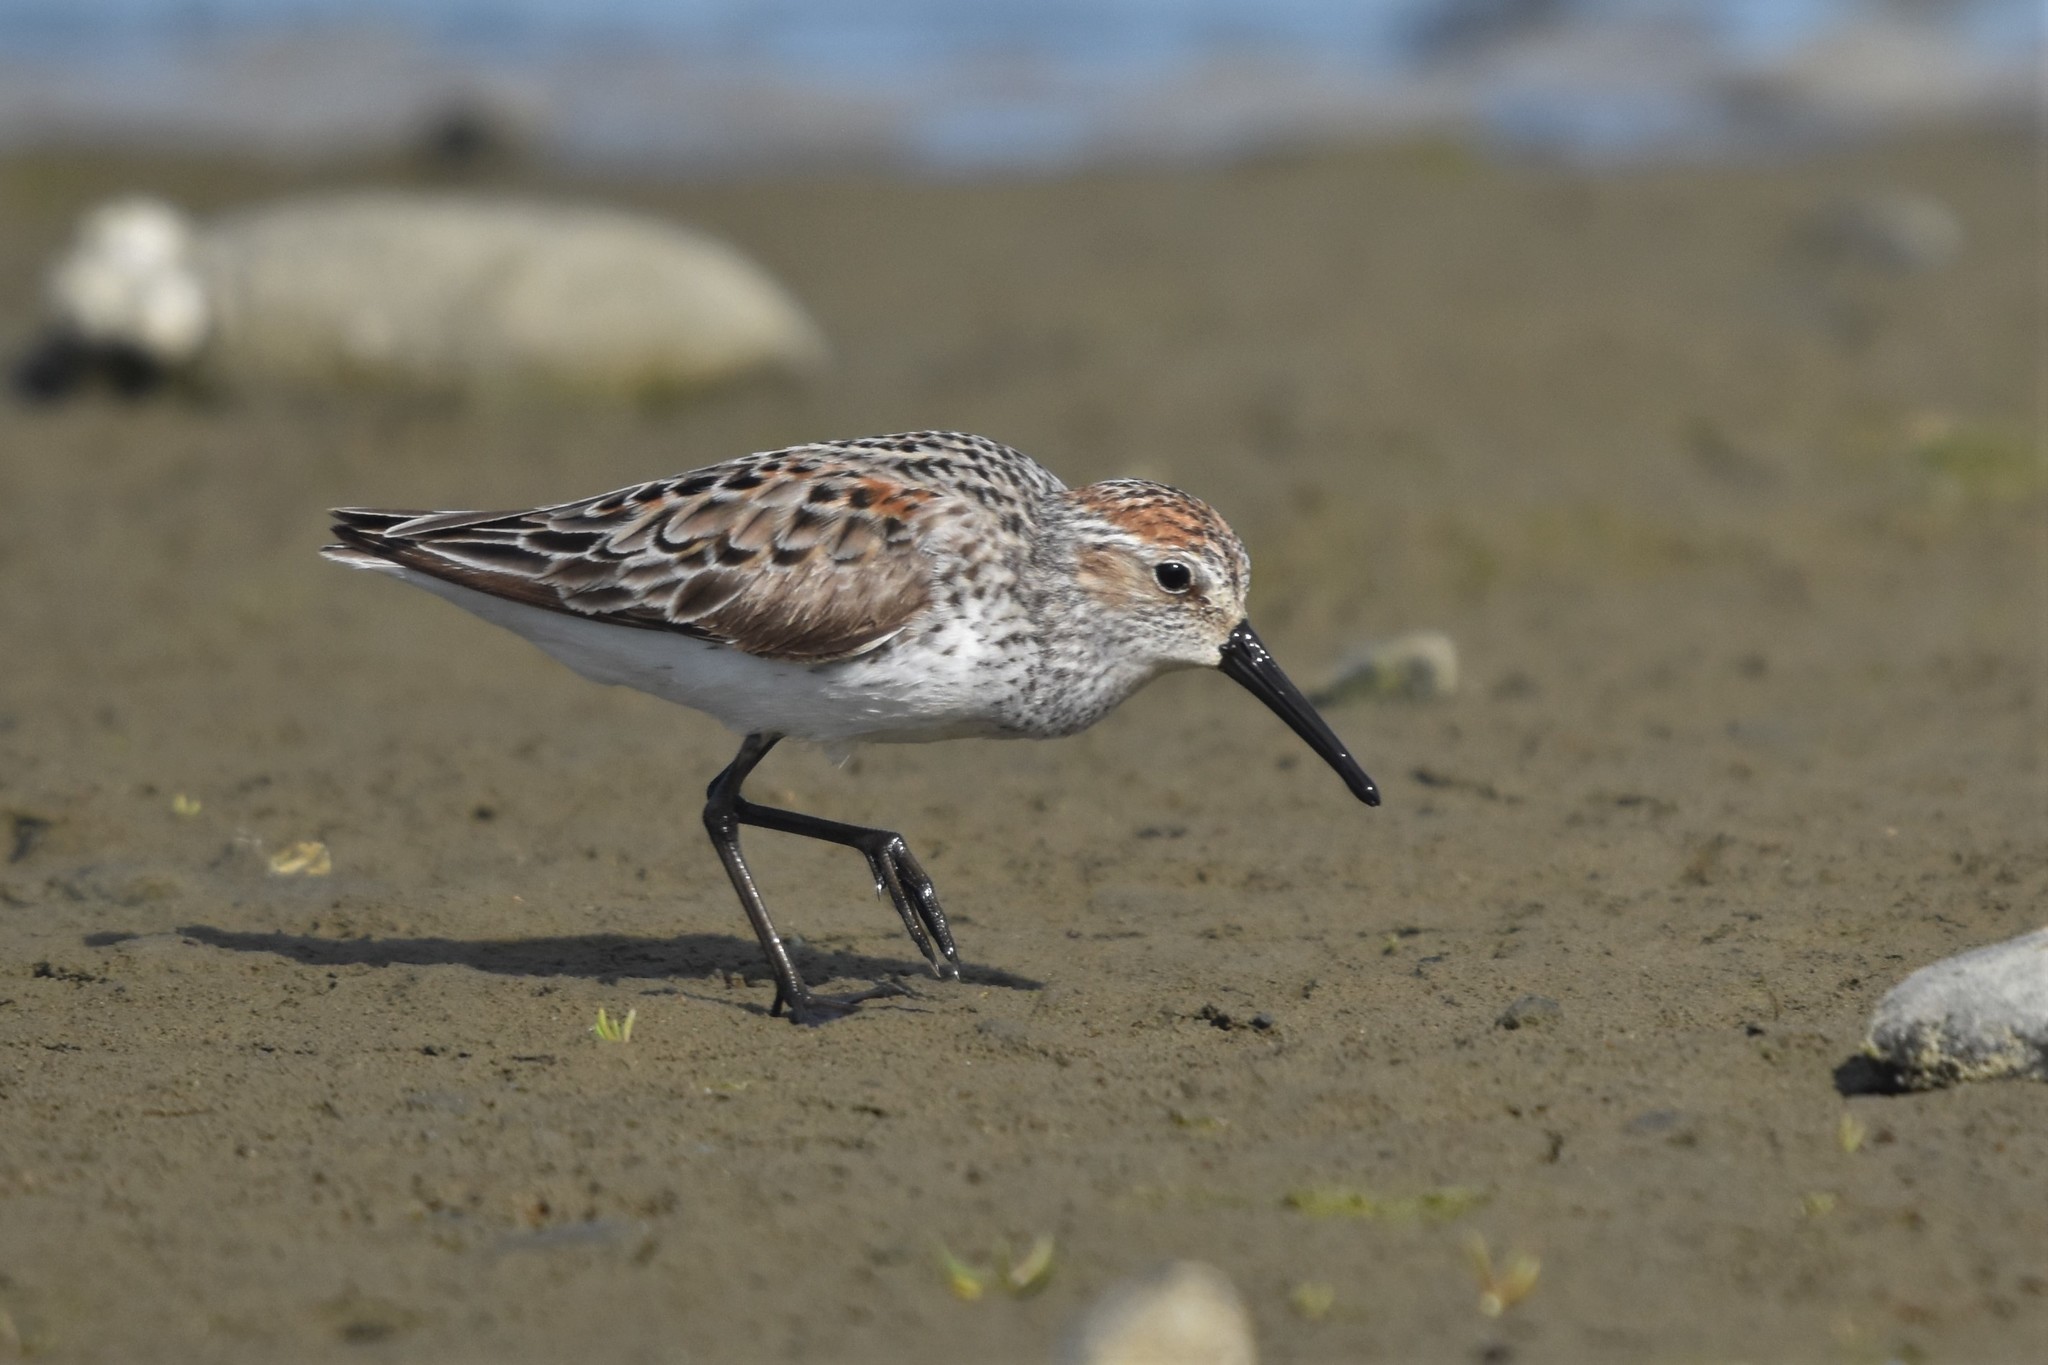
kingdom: Animalia
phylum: Chordata
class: Aves
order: Charadriiformes
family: Scolopacidae
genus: Calidris
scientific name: Calidris mauri
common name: Western sandpiper
